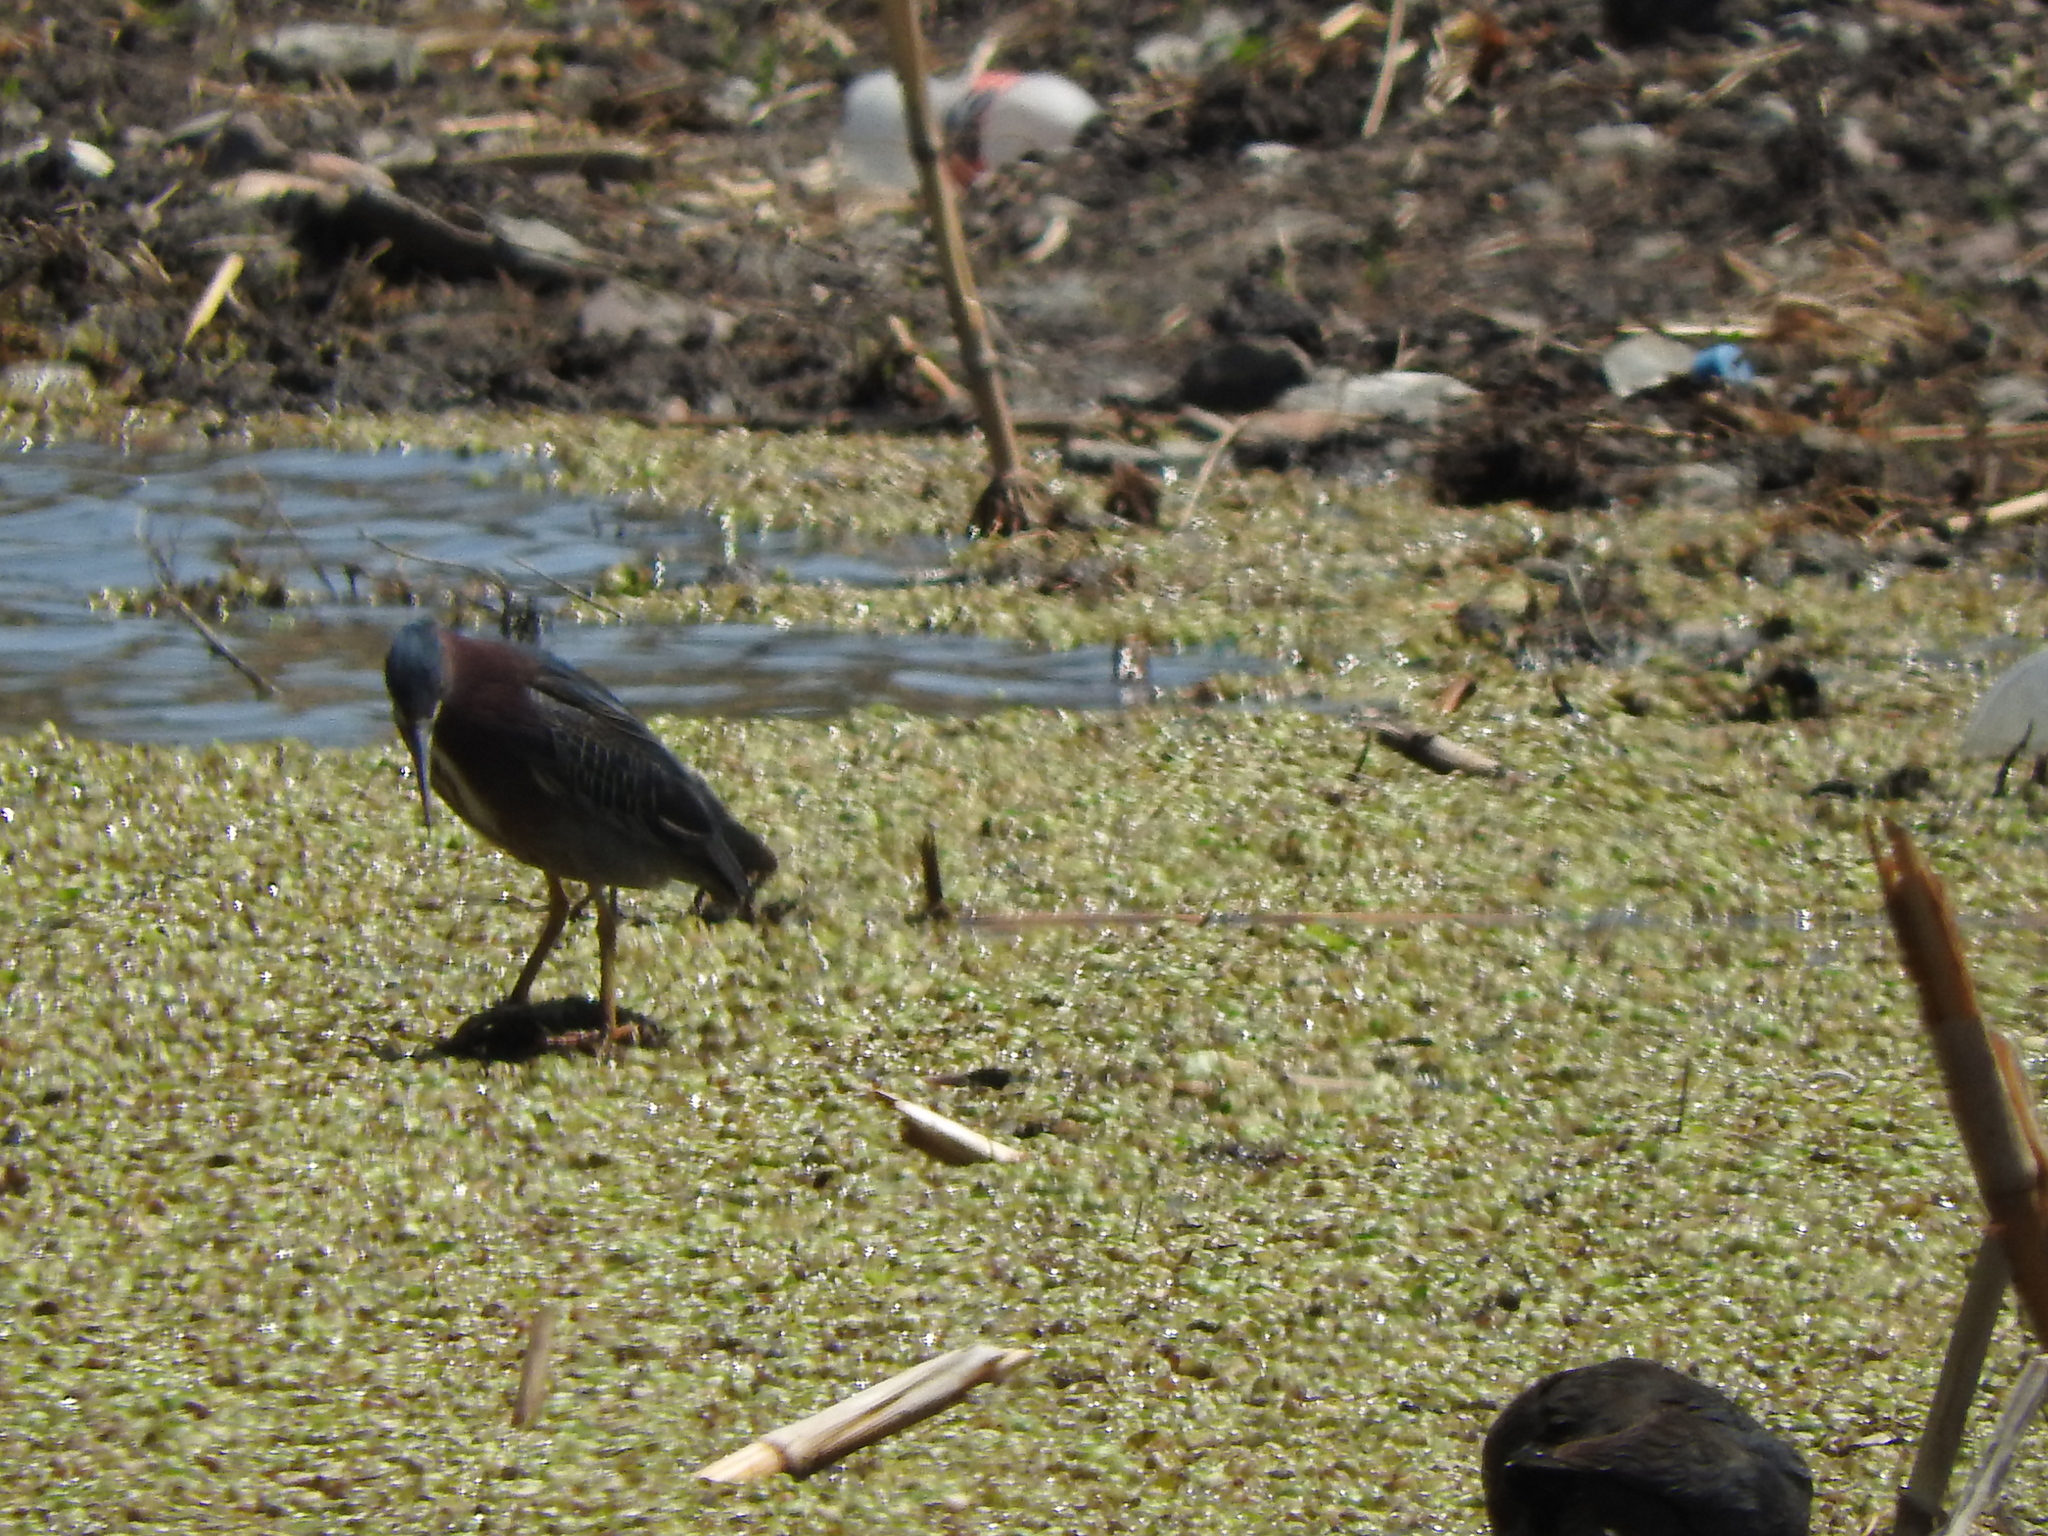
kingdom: Animalia
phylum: Chordata
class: Aves
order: Pelecaniformes
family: Ardeidae
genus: Butorides
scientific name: Butorides virescens
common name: Green heron
